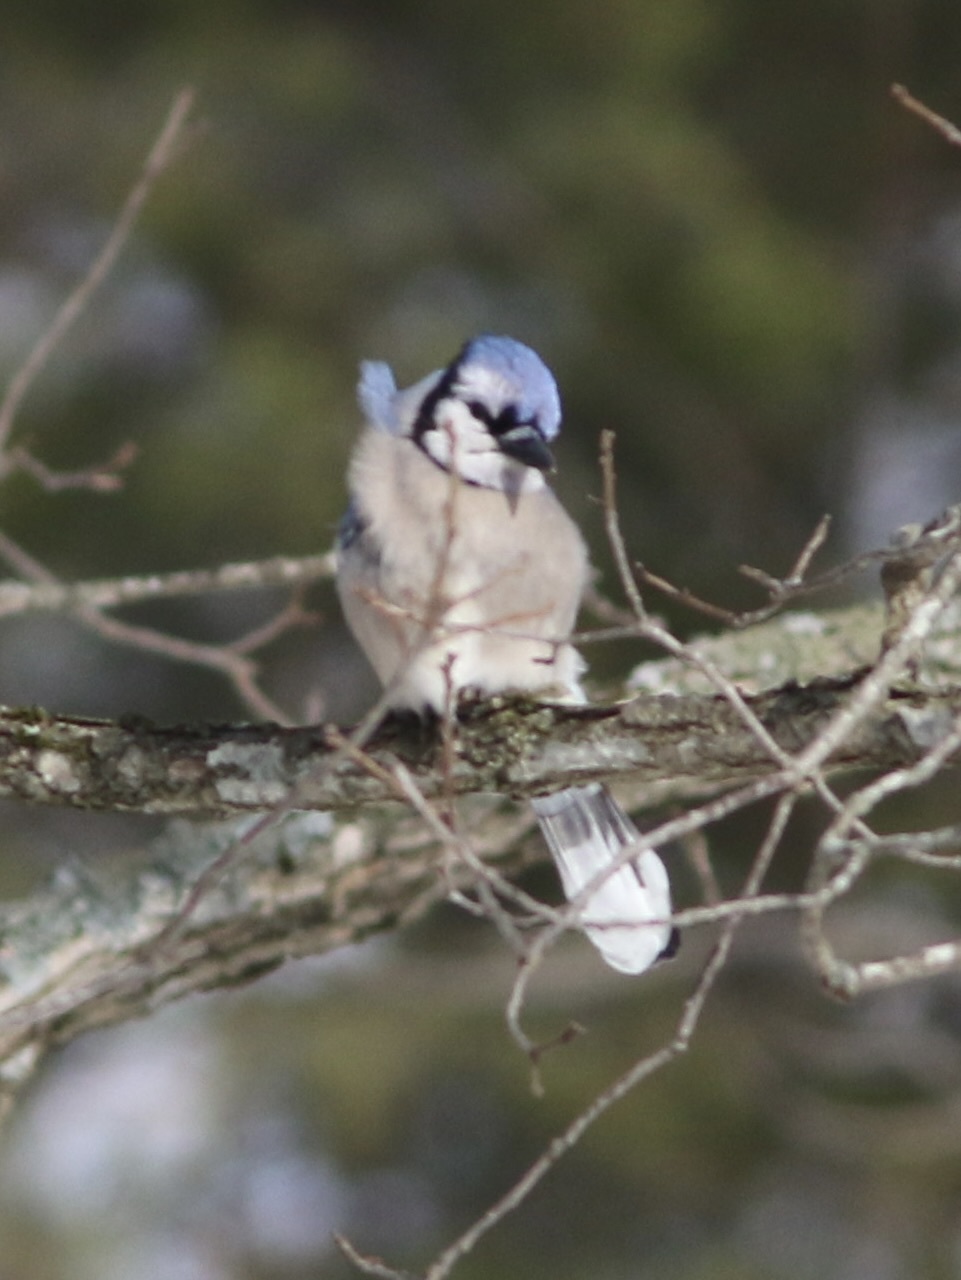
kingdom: Animalia
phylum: Chordata
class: Aves
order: Passeriformes
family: Corvidae
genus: Cyanocitta
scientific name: Cyanocitta cristata
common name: Blue jay
